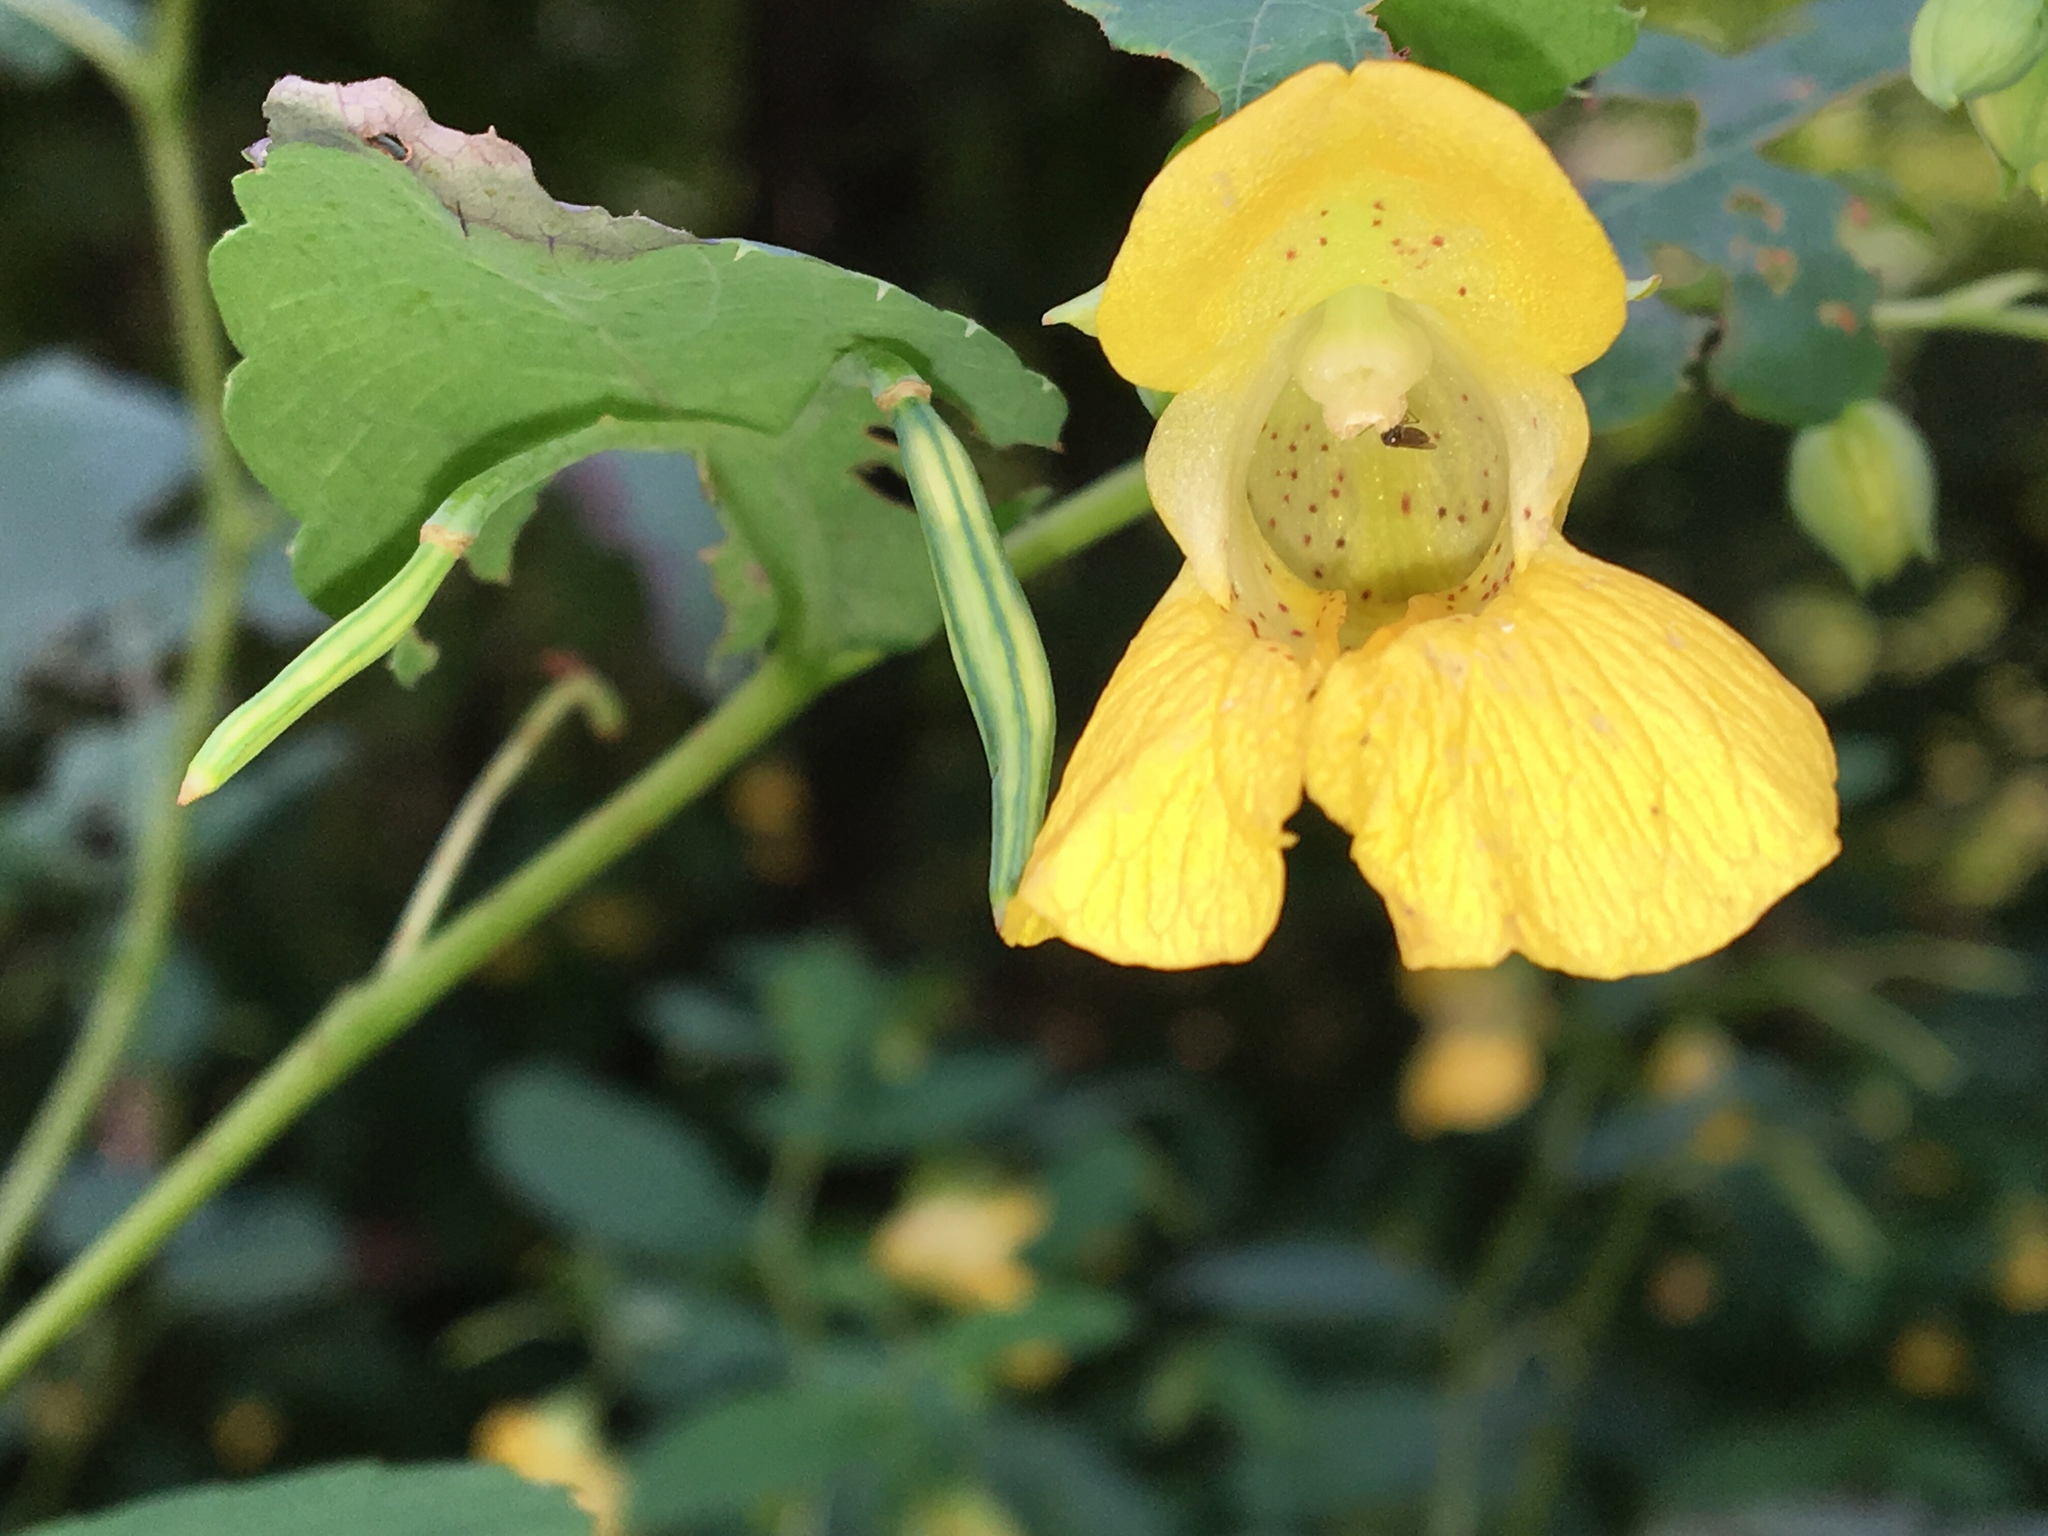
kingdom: Plantae
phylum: Tracheophyta
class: Magnoliopsida
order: Ericales
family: Balsaminaceae
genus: Impatiens
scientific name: Impatiens pallida
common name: Pale snapweed
